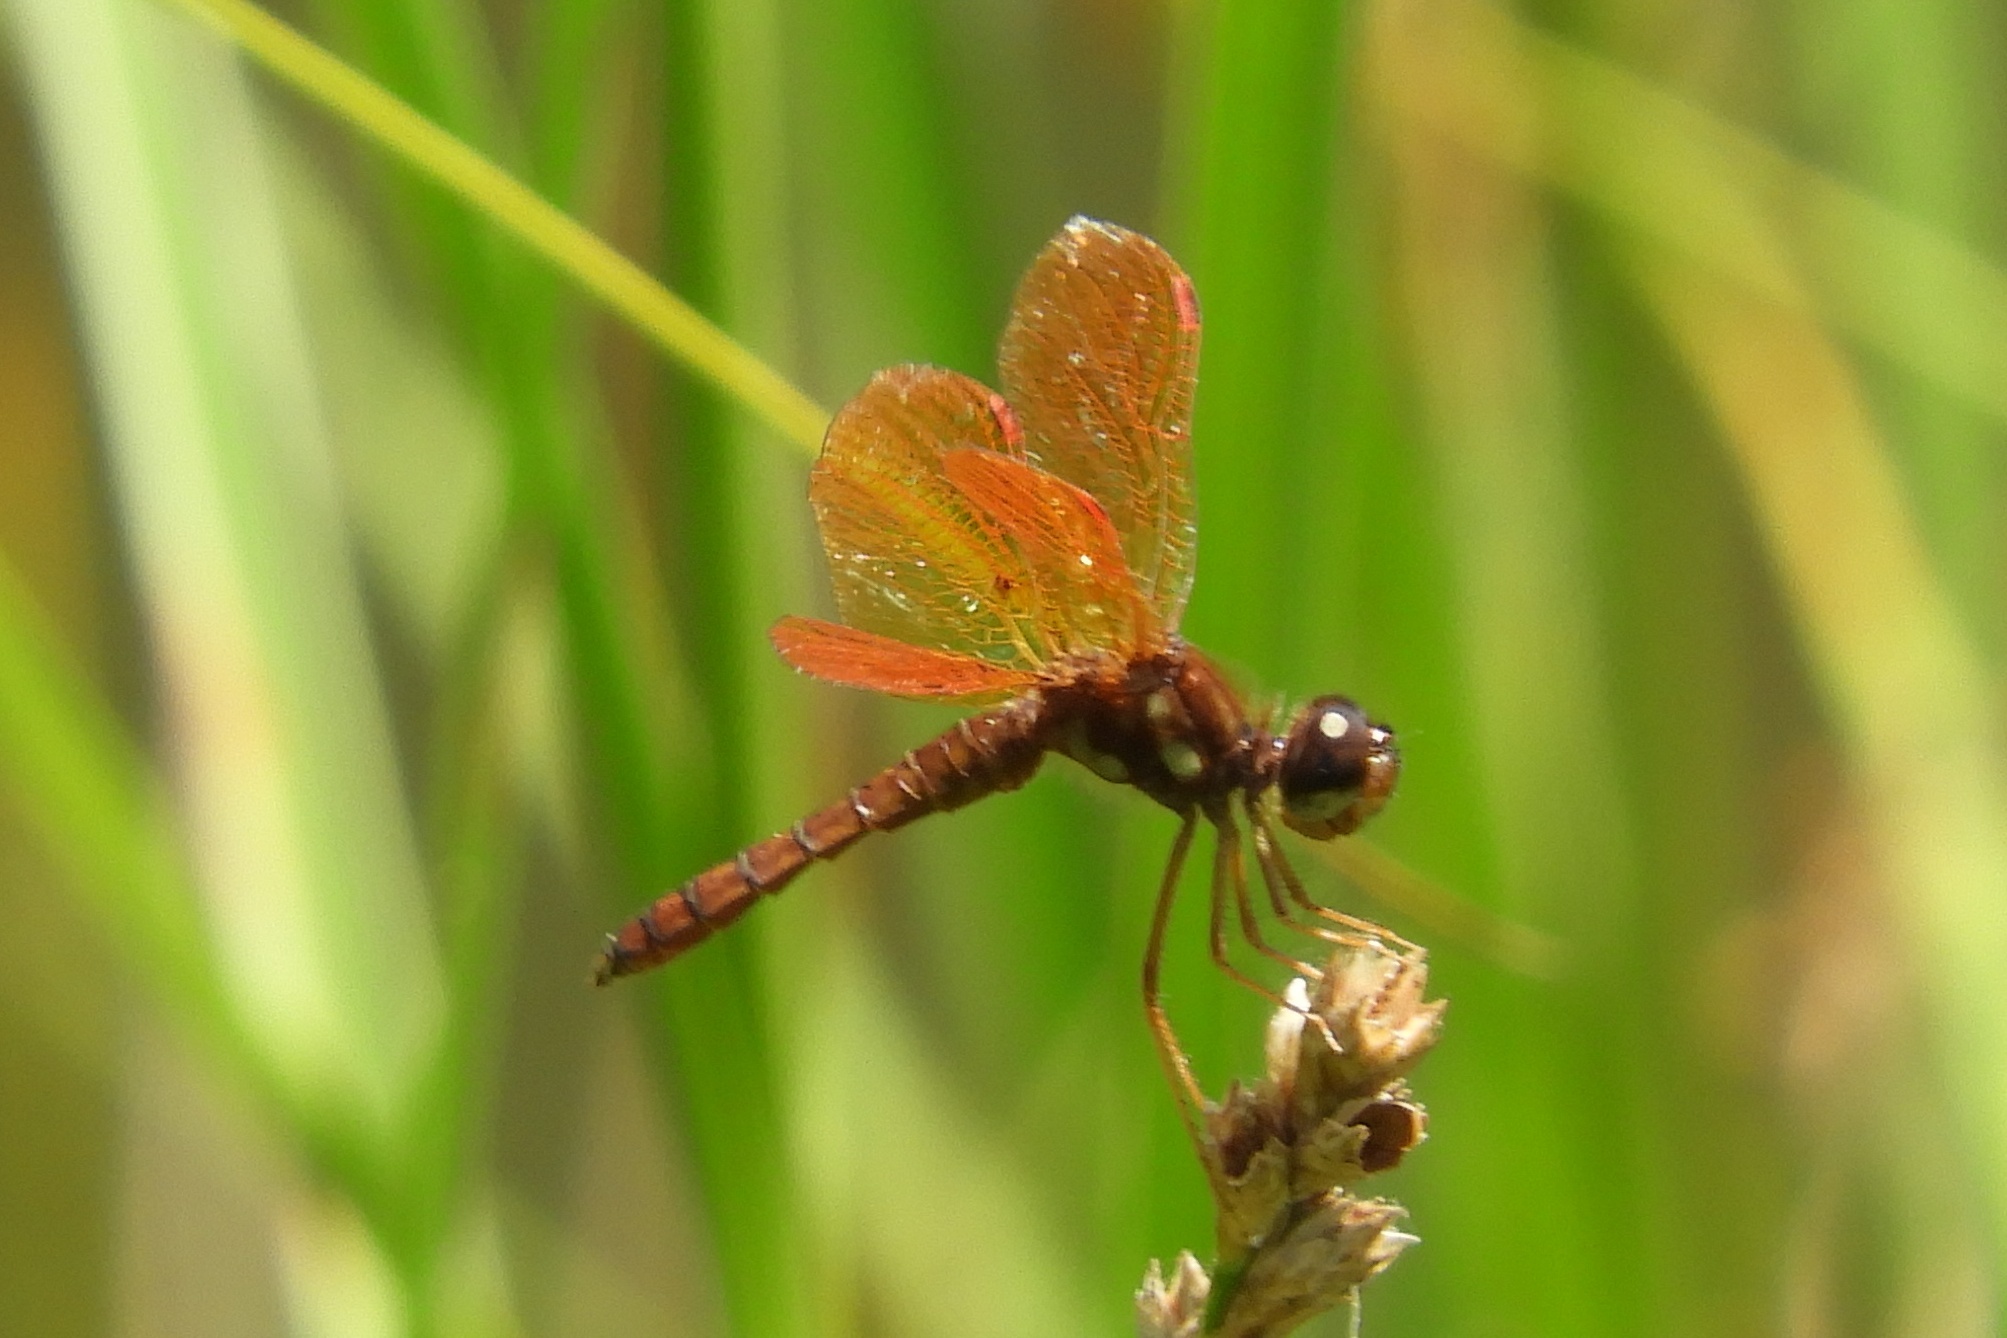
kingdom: Animalia
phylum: Arthropoda
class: Insecta
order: Odonata
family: Libellulidae
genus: Perithemis
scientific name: Perithemis tenera
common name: Eastern amberwing
